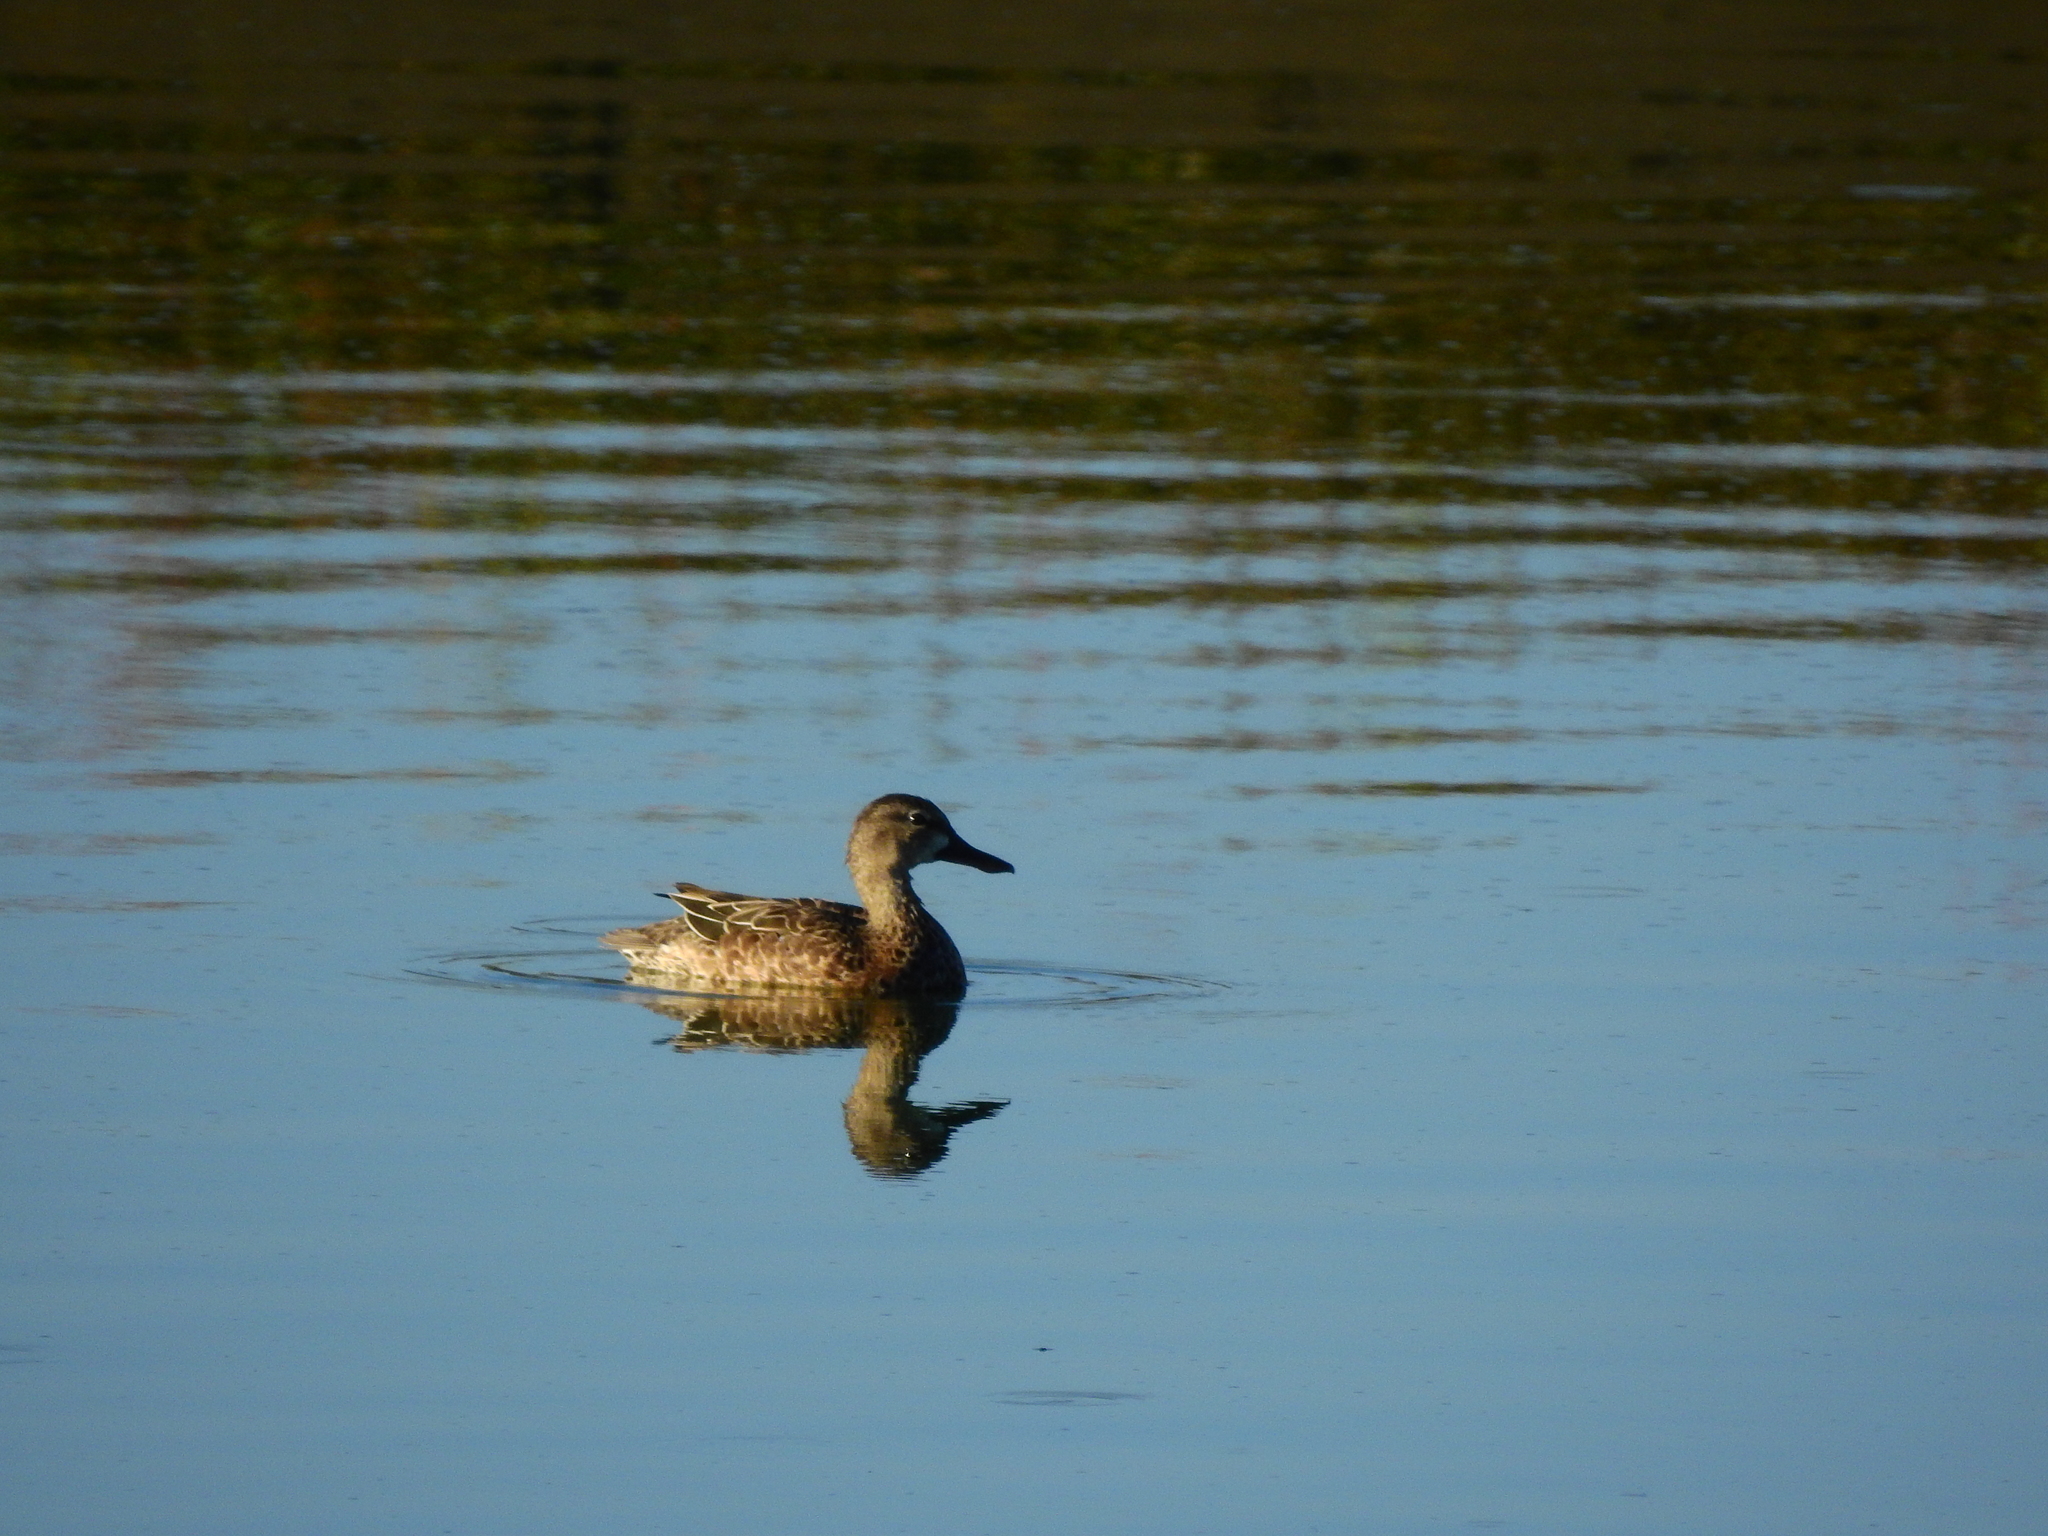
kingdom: Animalia
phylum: Chordata
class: Aves
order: Anseriformes
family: Anatidae
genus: Spatula
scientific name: Spatula discors
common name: Blue-winged teal
